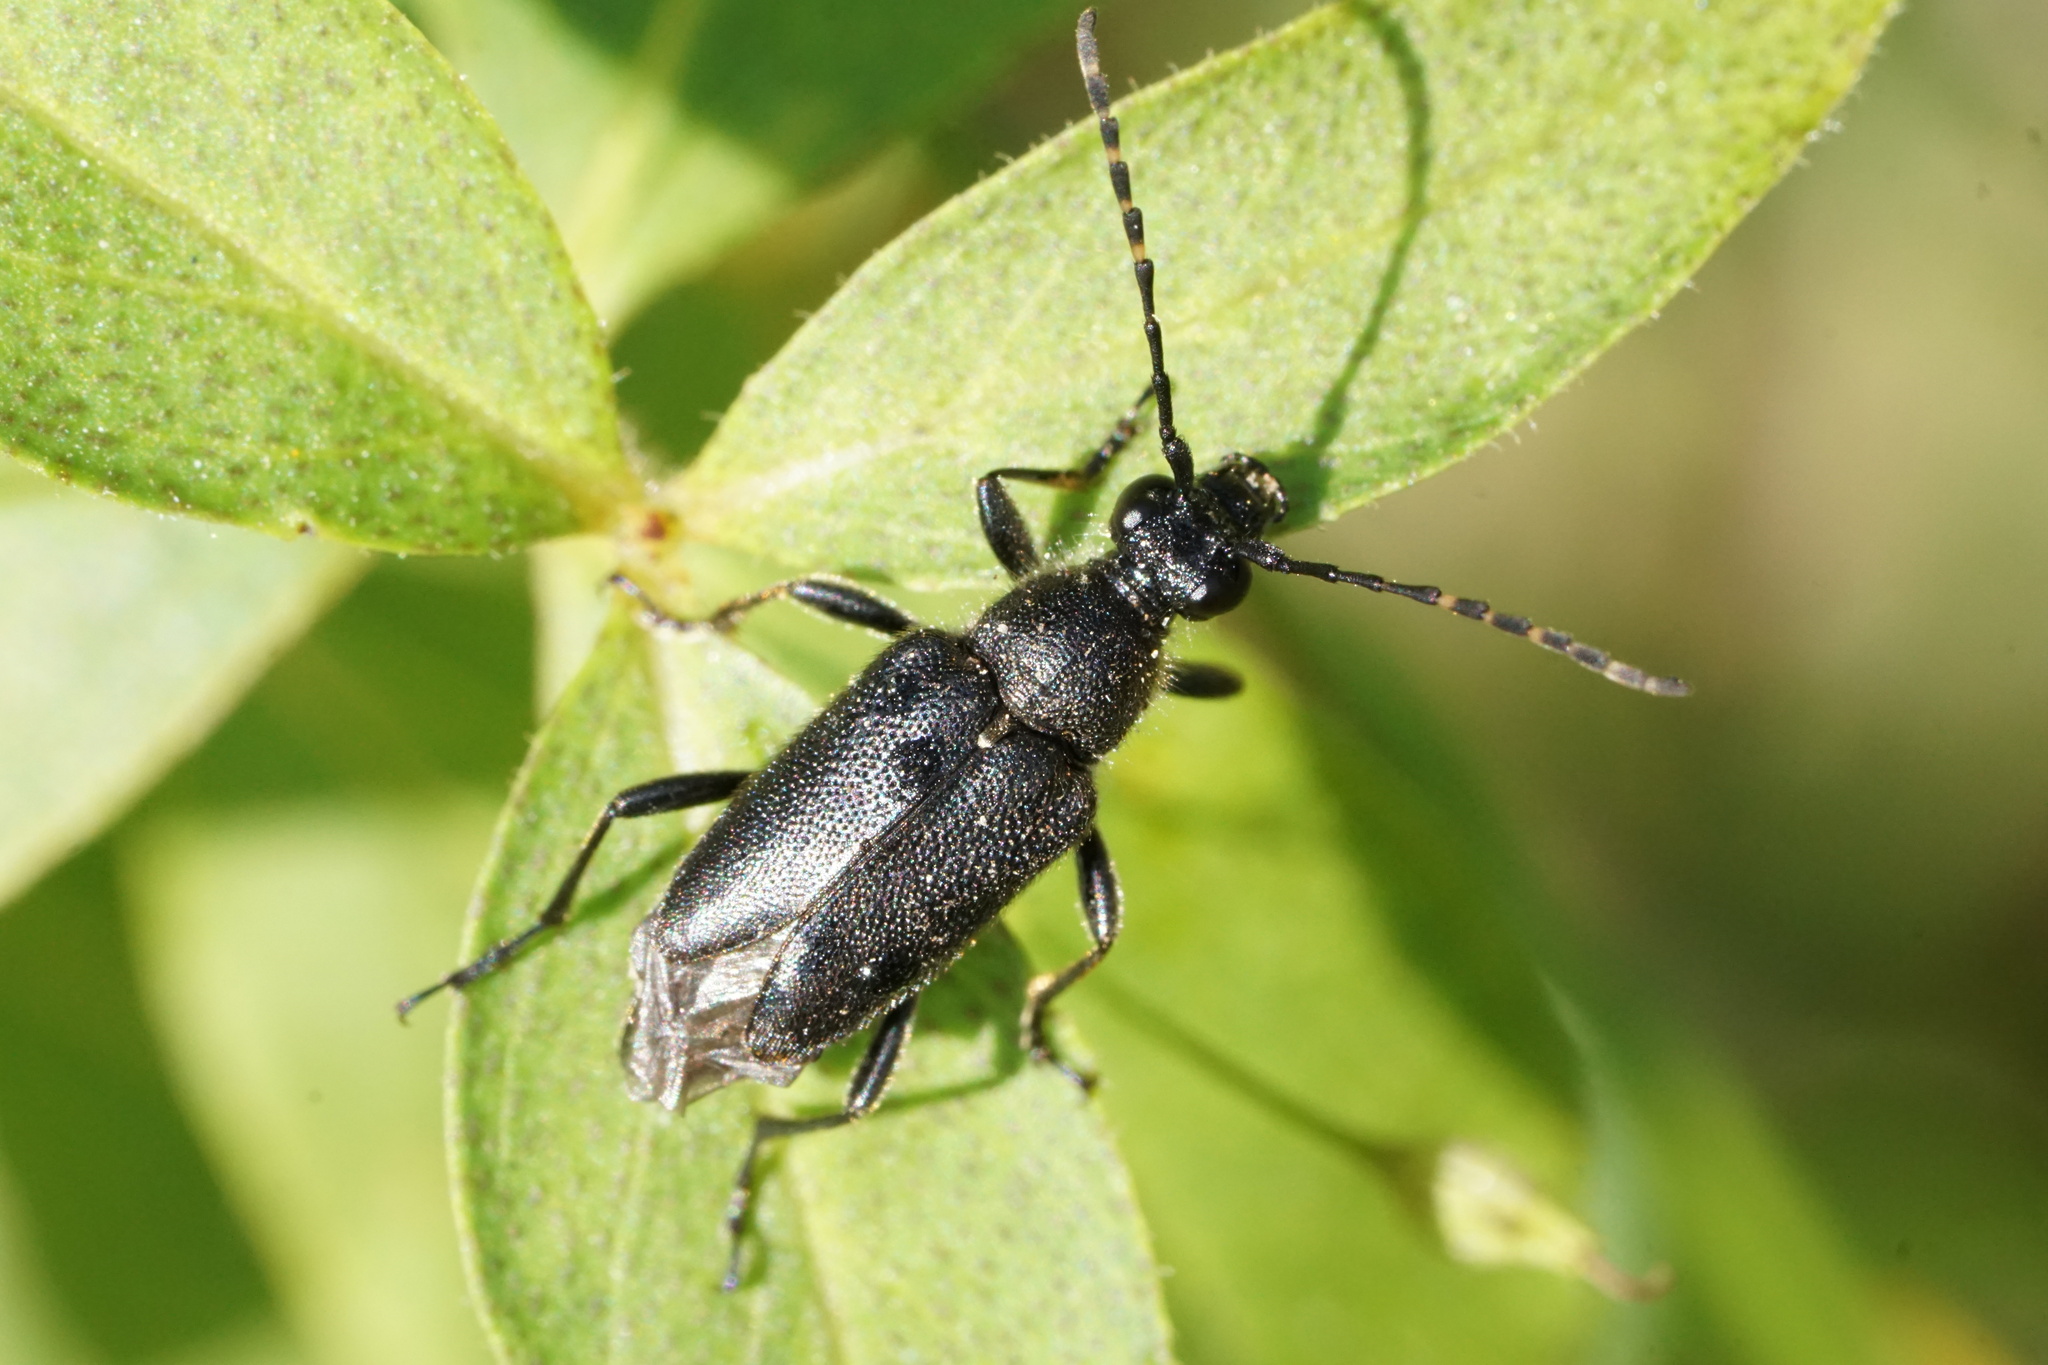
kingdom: Animalia
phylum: Arthropoda
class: Insecta
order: Coleoptera
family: Cerambycidae
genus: Anoplodera
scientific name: Anoplodera pubera
